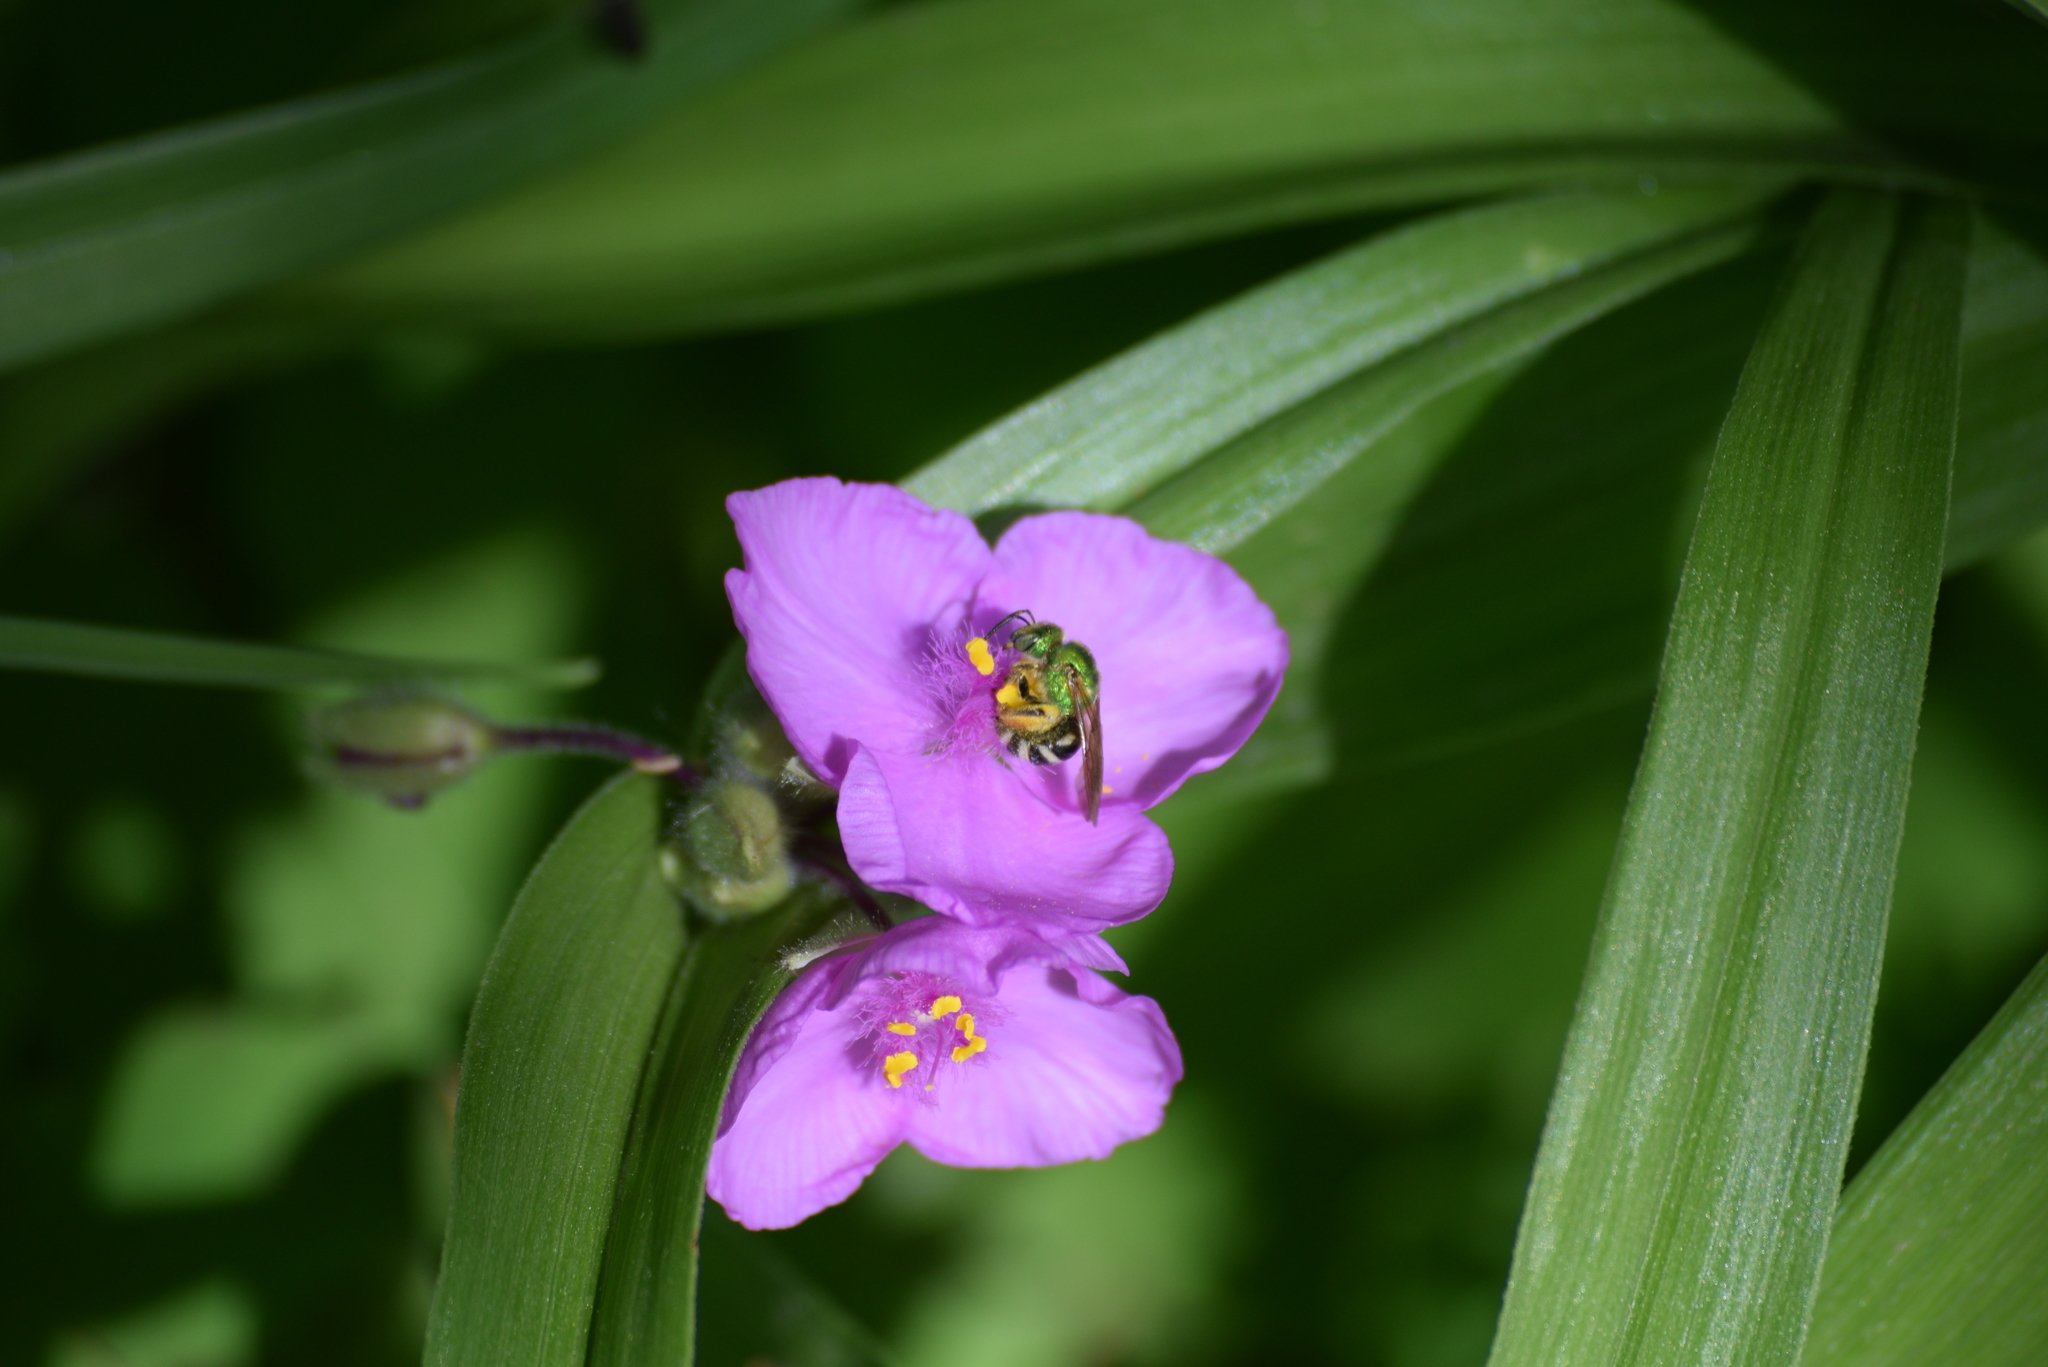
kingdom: Animalia
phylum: Arthropoda
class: Insecta
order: Hymenoptera
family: Halictidae
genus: Agapostemon
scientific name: Agapostemon virescens
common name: Bicolored striped sweat bee
